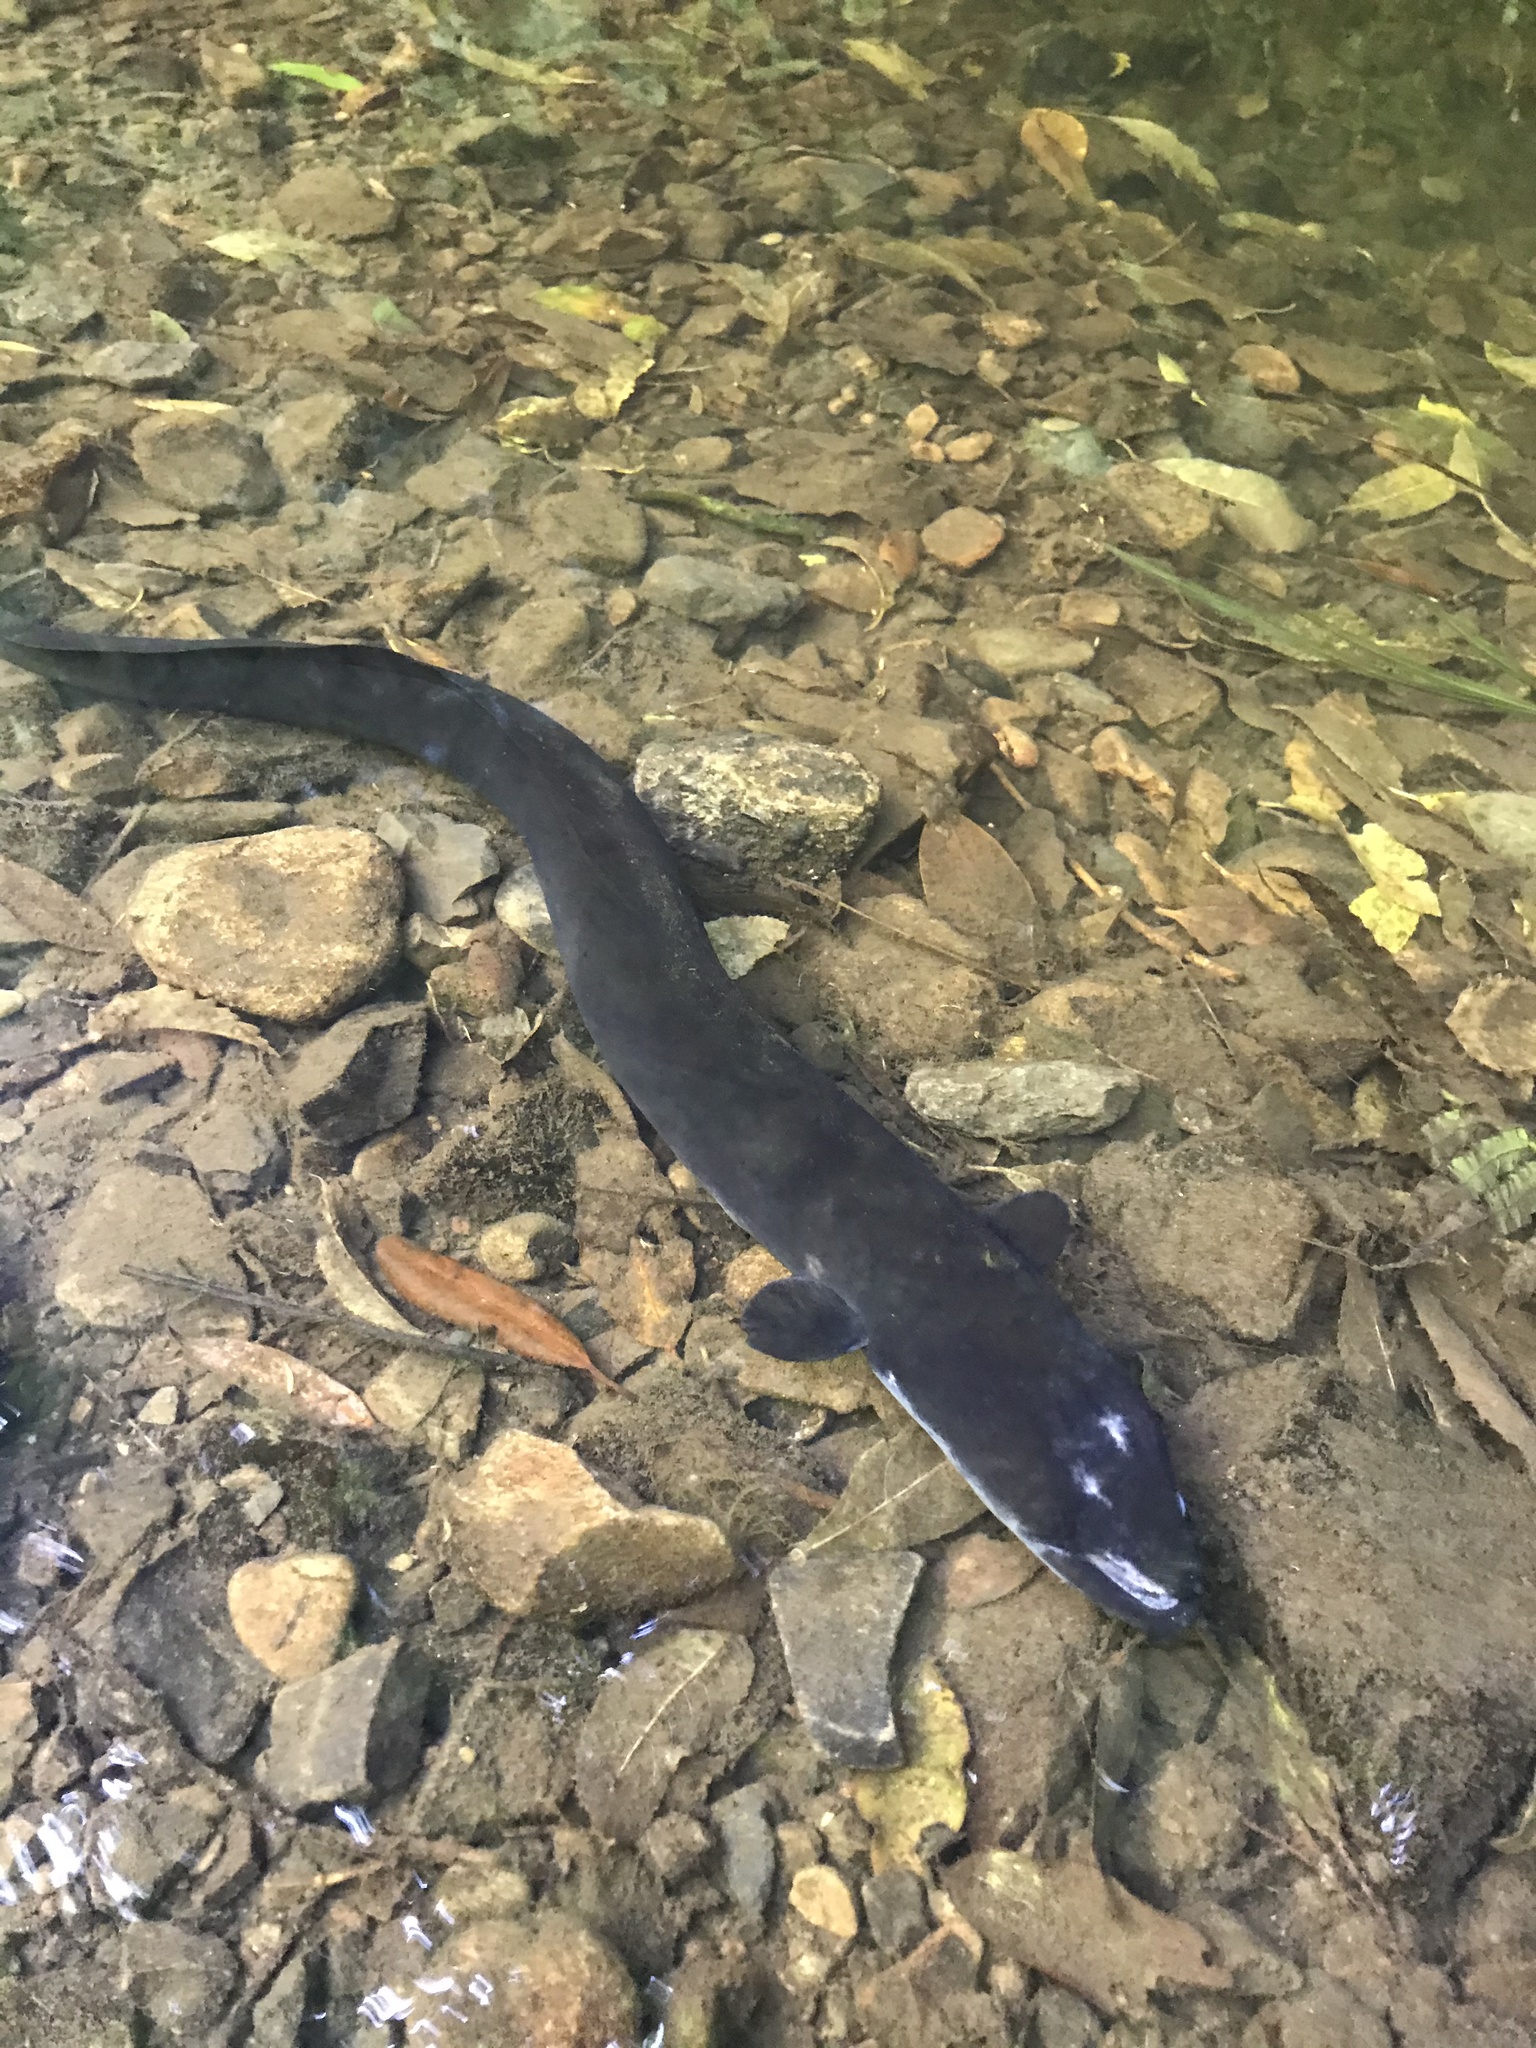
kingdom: Animalia
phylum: Chordata
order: Anguilliformes
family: Anguillidae
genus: Anguilla
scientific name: Anguilla dieffenbachii
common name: New zealand longfin eel
